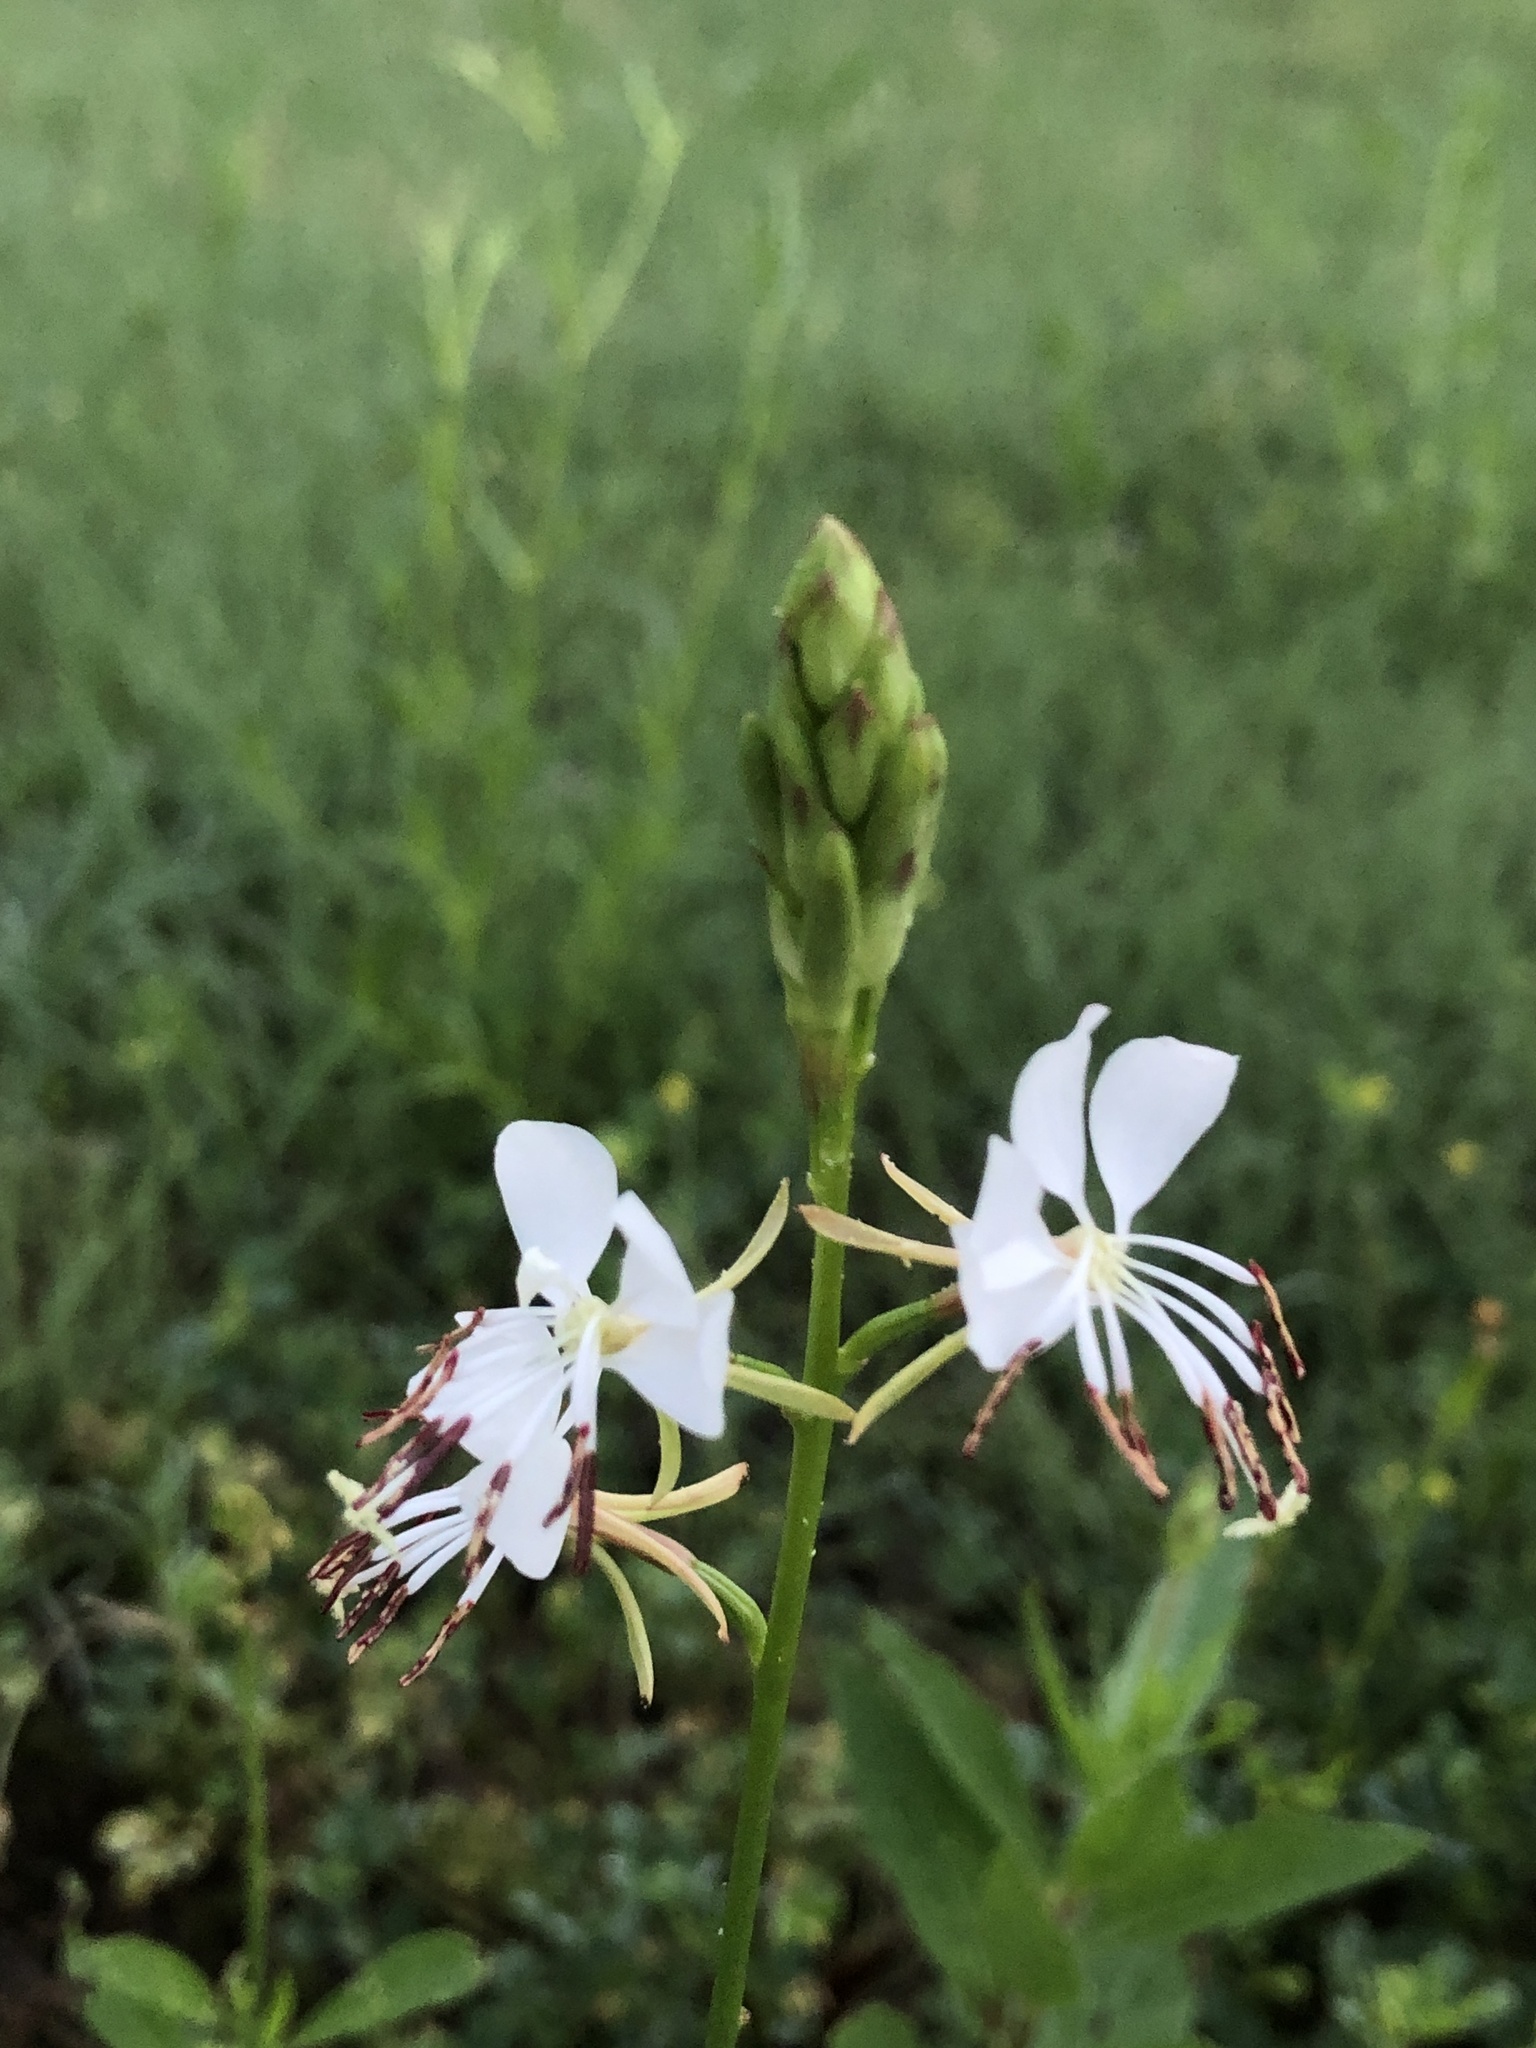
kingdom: Plantae
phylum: Tracheophyta
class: Magnoliopsida
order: Myrtales
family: Onagraceae
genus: Oenothera
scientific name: Oenothera suffulta
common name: Kisses
